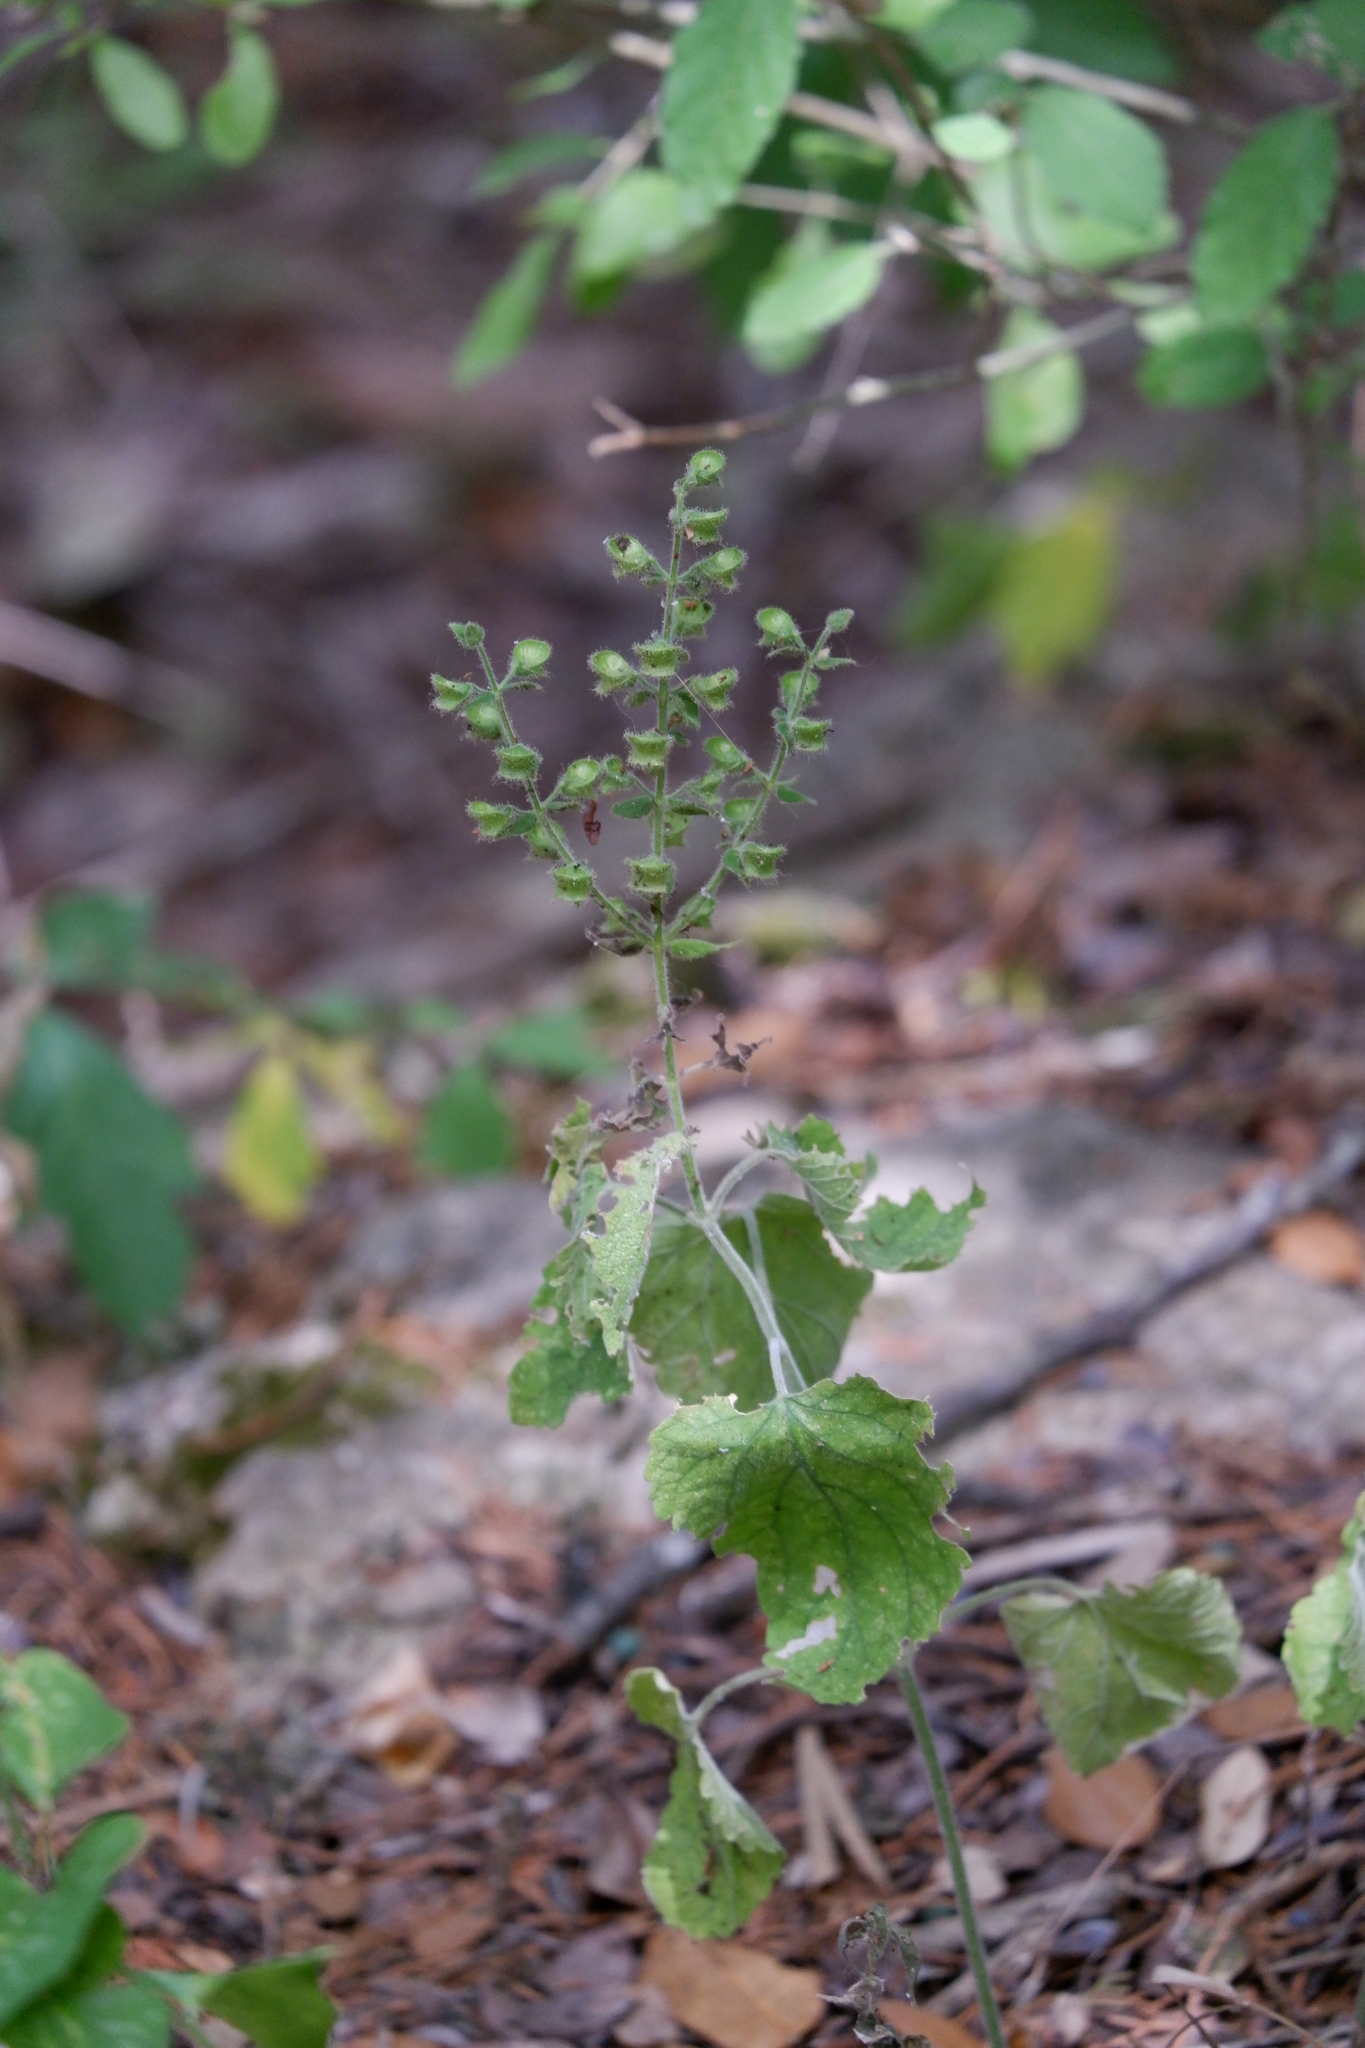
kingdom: Plantae
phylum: Tracheophyta
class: Magnoliopsida
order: Lamiales
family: Lamiaceae
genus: Scutellaria
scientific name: Scutellaria ovata
